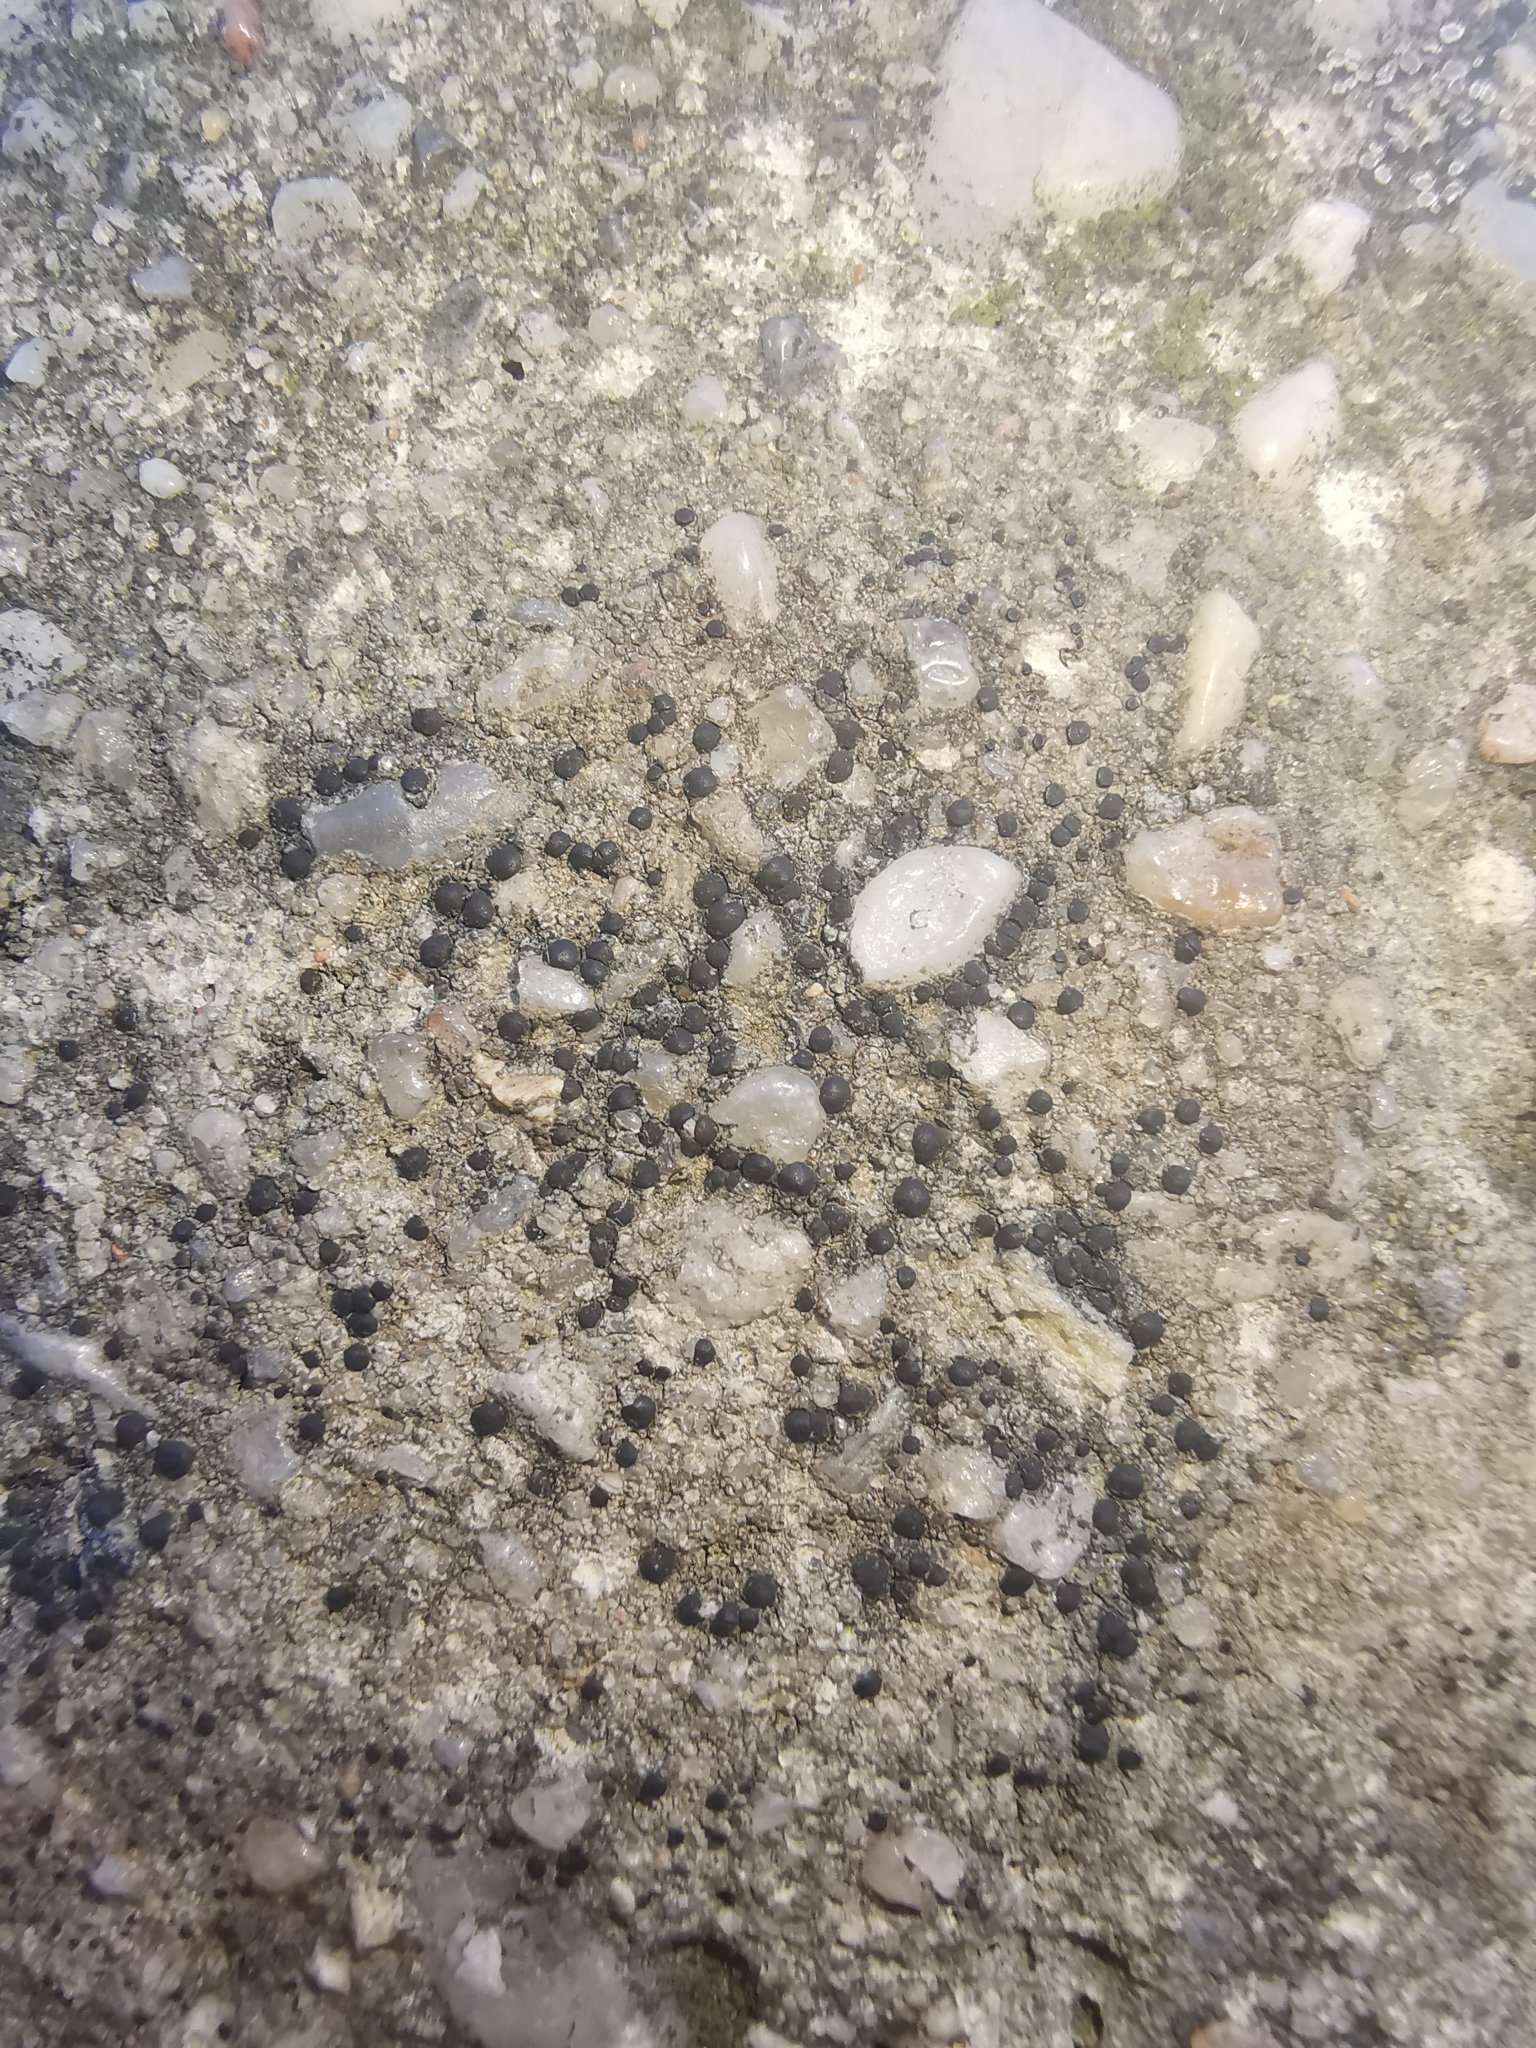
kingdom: Fungi
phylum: Ascomycota
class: Lecanoromycetes
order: Lecanorales
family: Lecanoraceae
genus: Lecidella
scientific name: Lecidella stigmatea
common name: Limestone disc lichen
